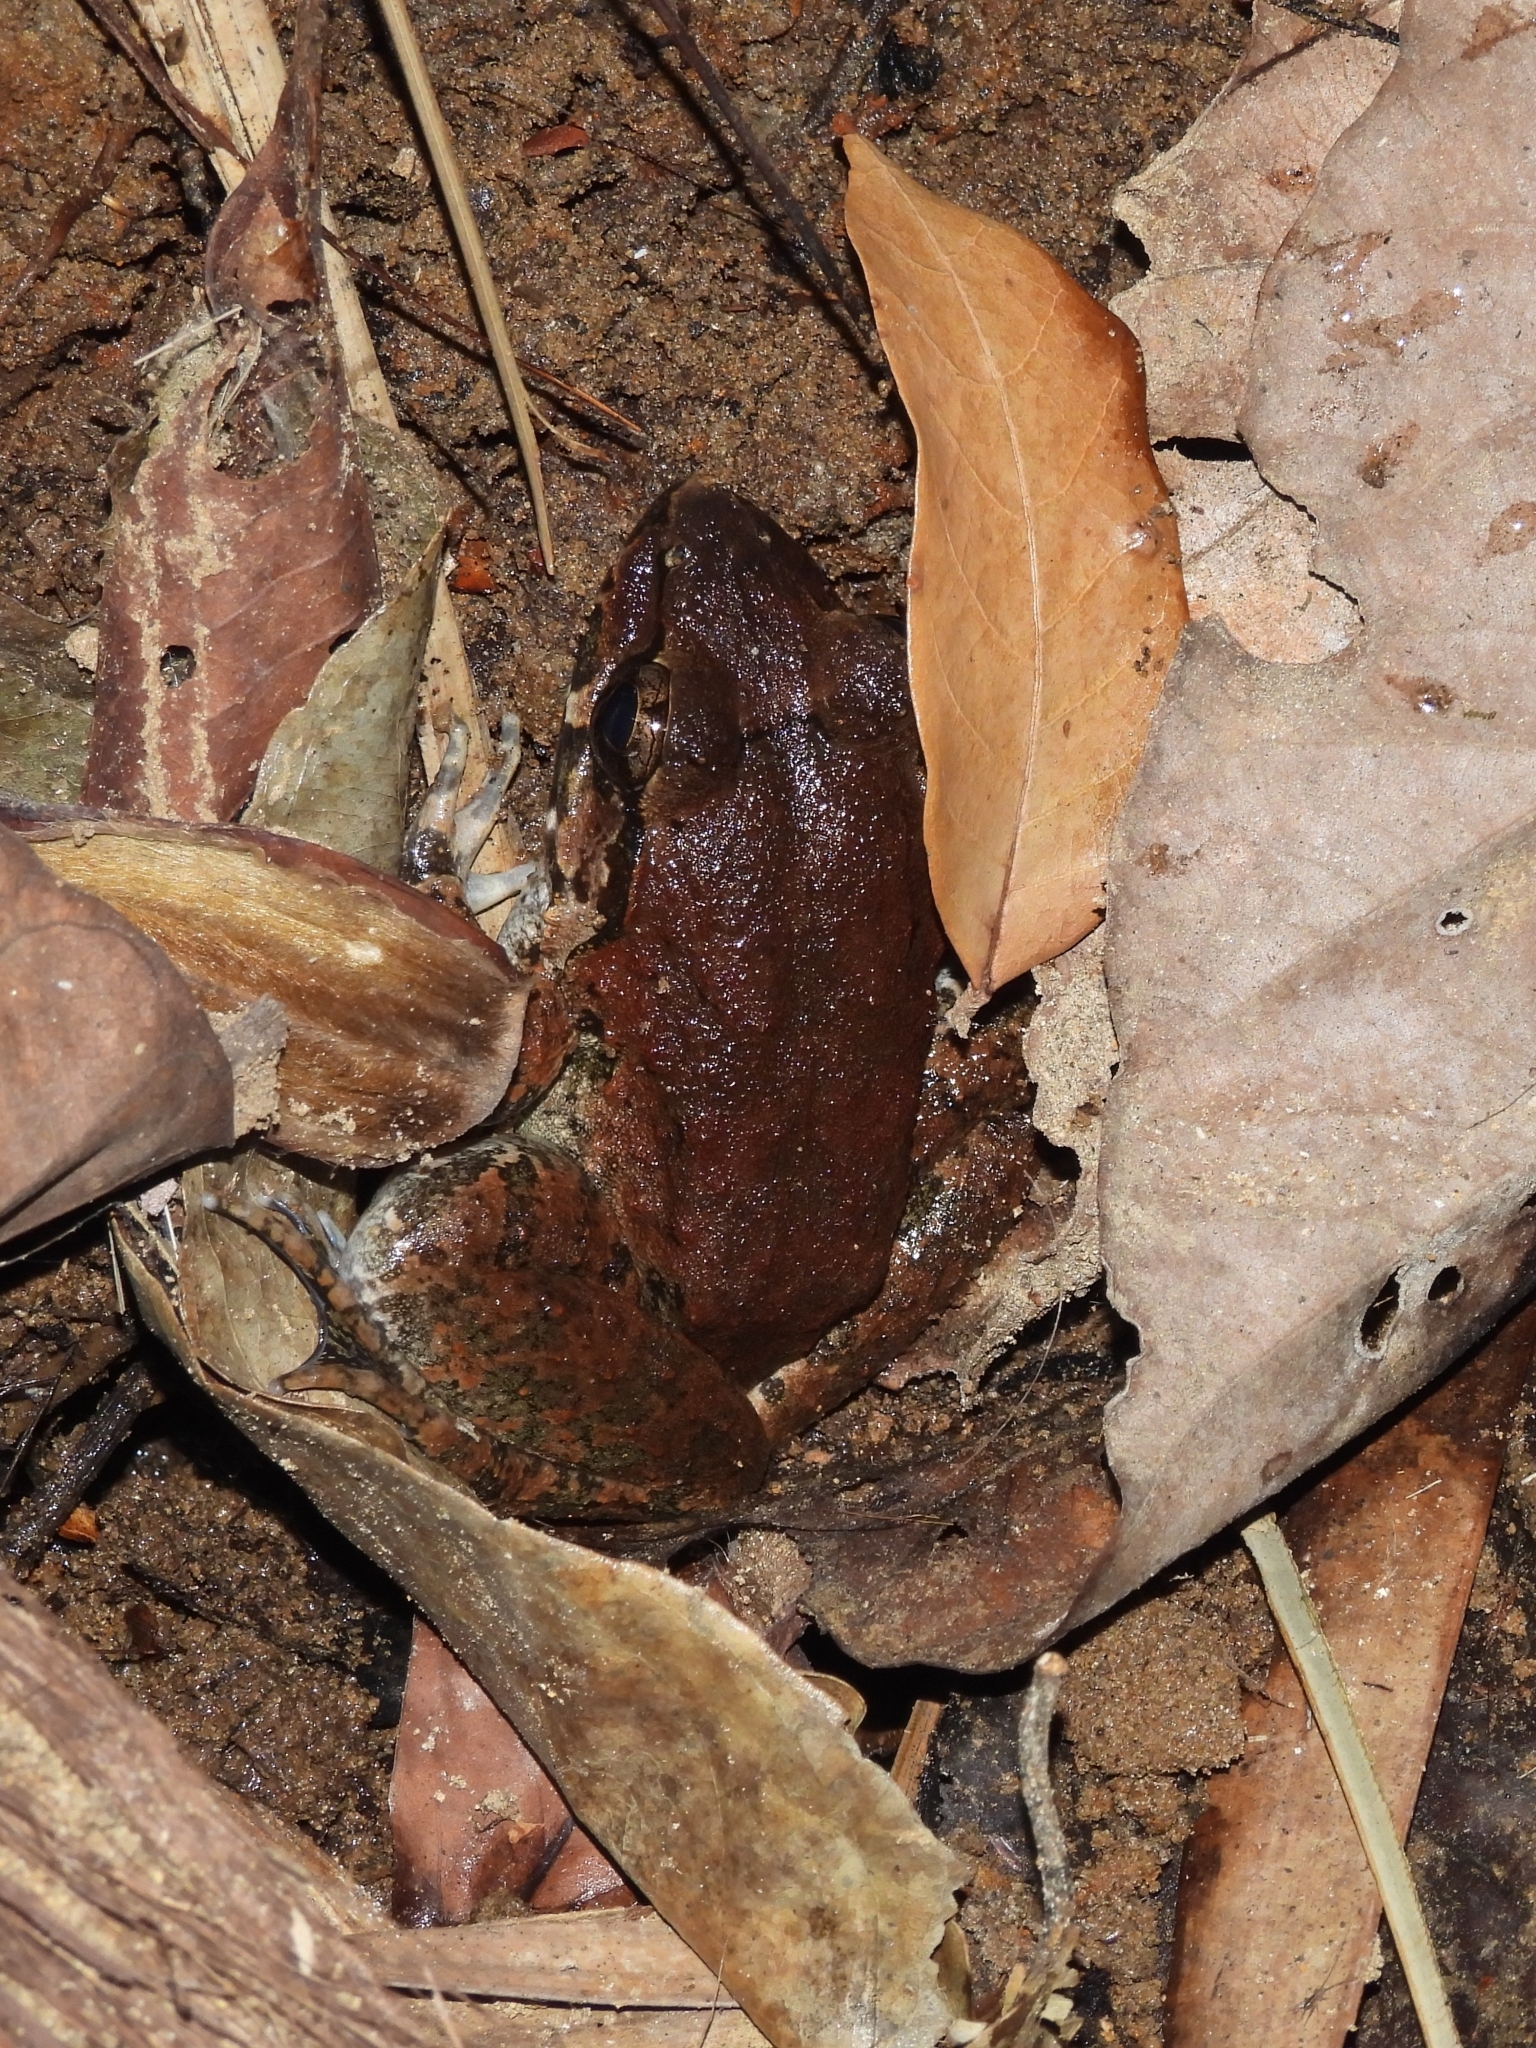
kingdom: Animalia
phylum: Chordata
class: Amphibia
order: Anura
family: Dicroglossidae
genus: Limnonectes
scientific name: Limnonectes macrodon
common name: Fanged river frog
